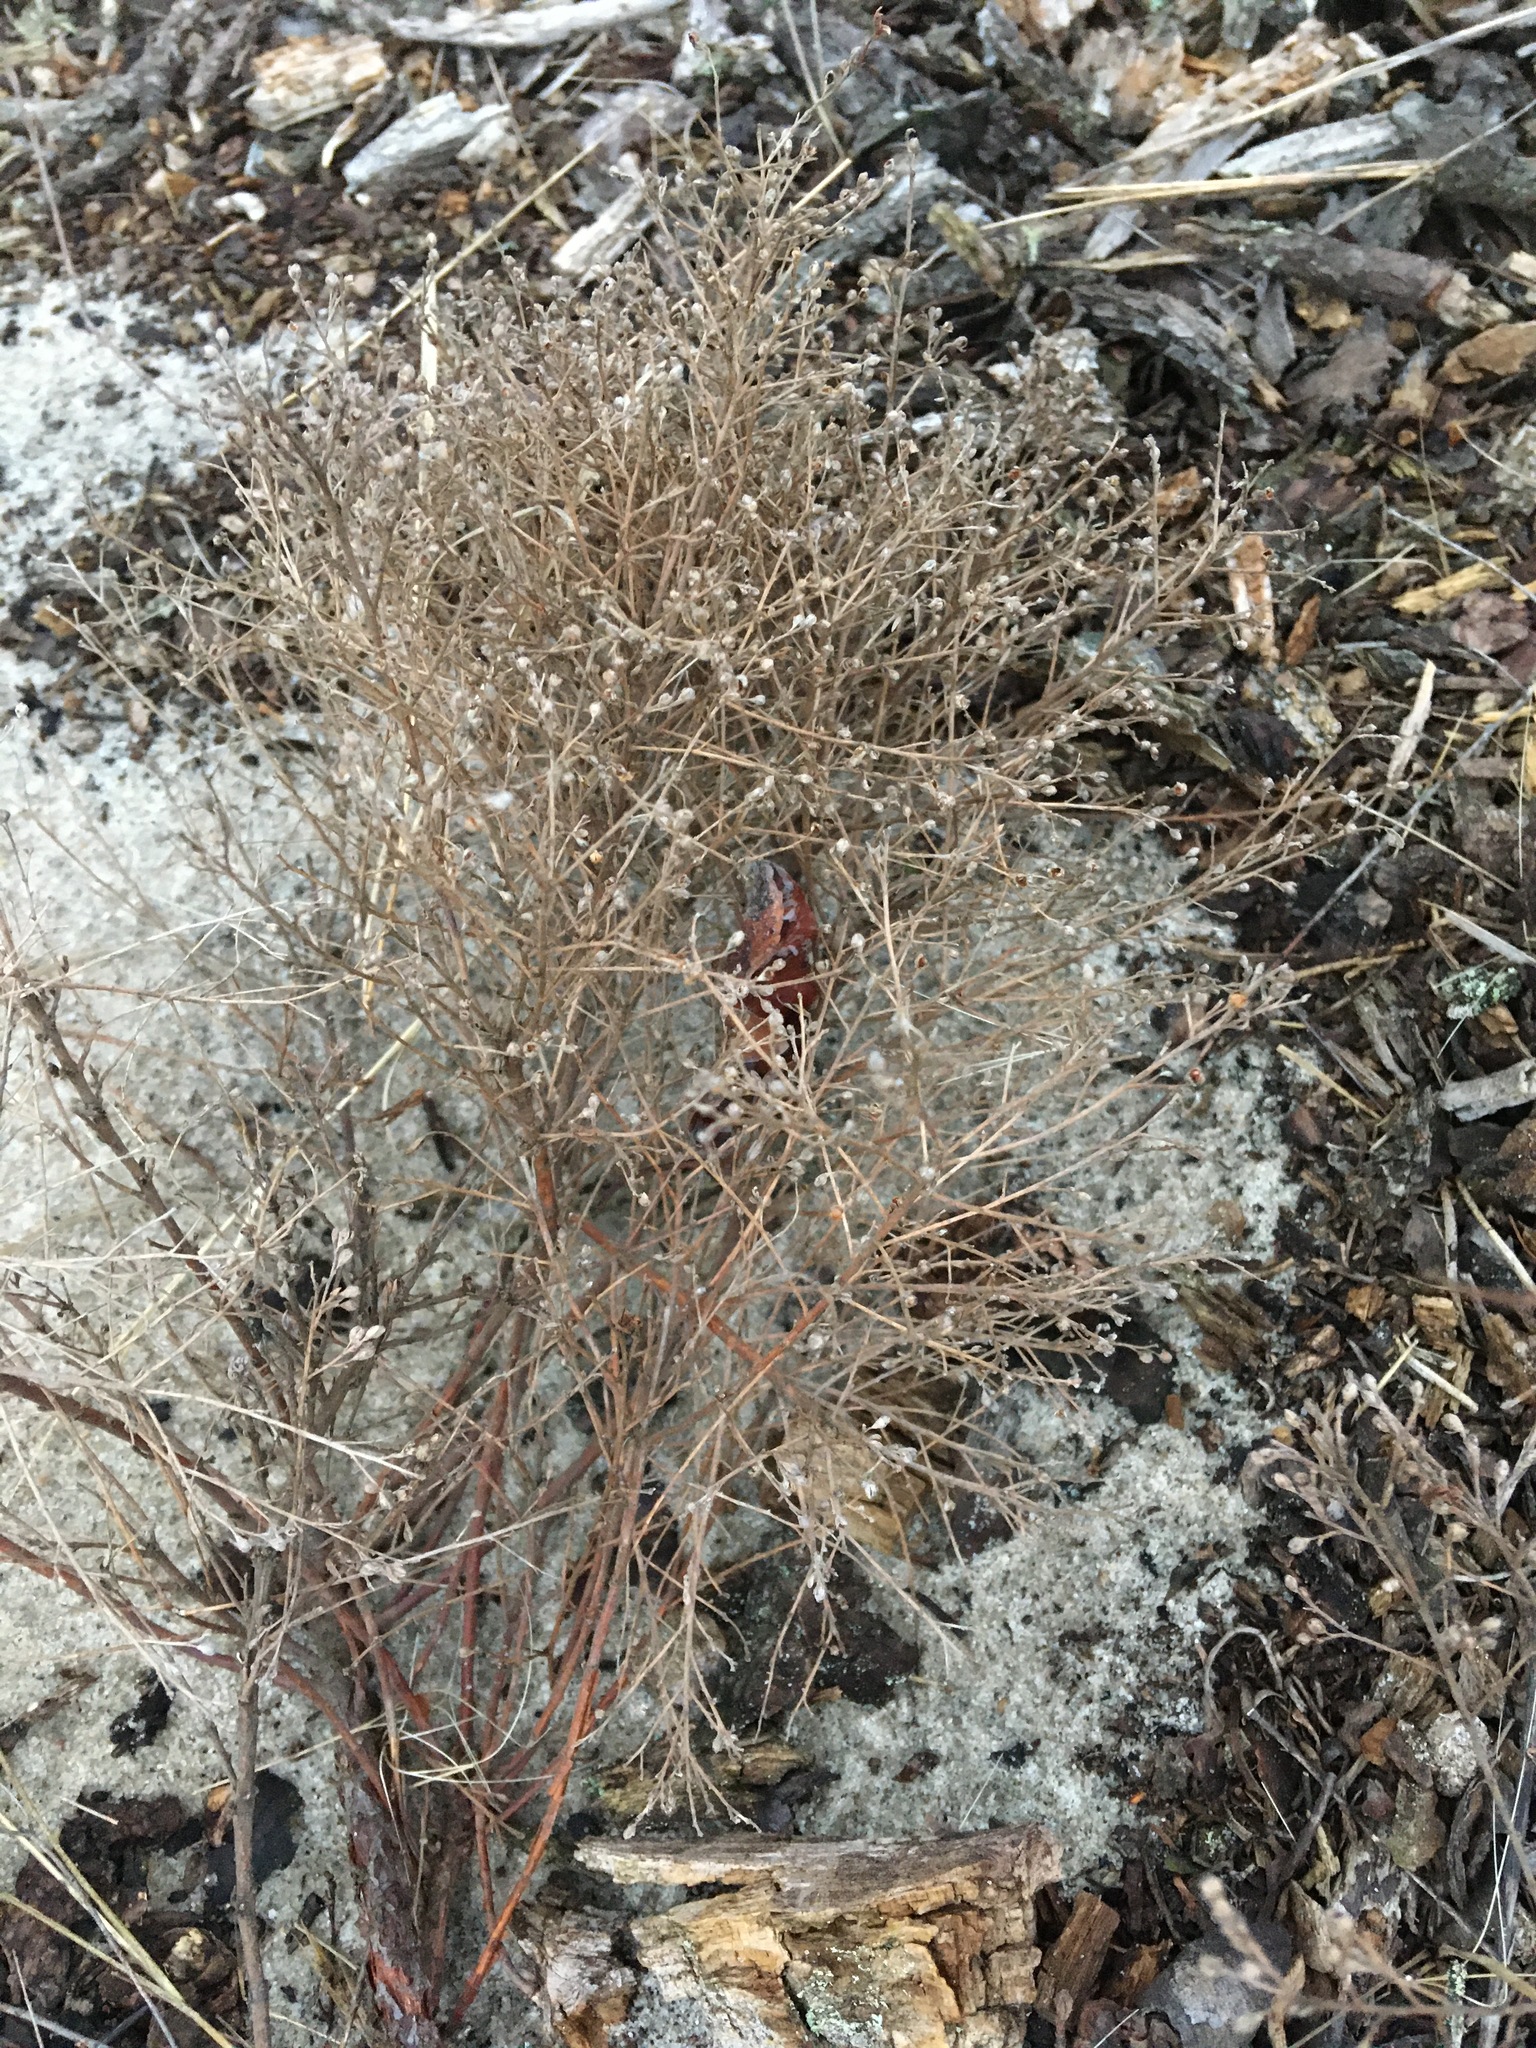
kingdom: Plantae
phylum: Tracheophyta
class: Magnoliopsida
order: Malvales
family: Cistaceae
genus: Lechea
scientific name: Lechea maritima
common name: Beach pinweed
